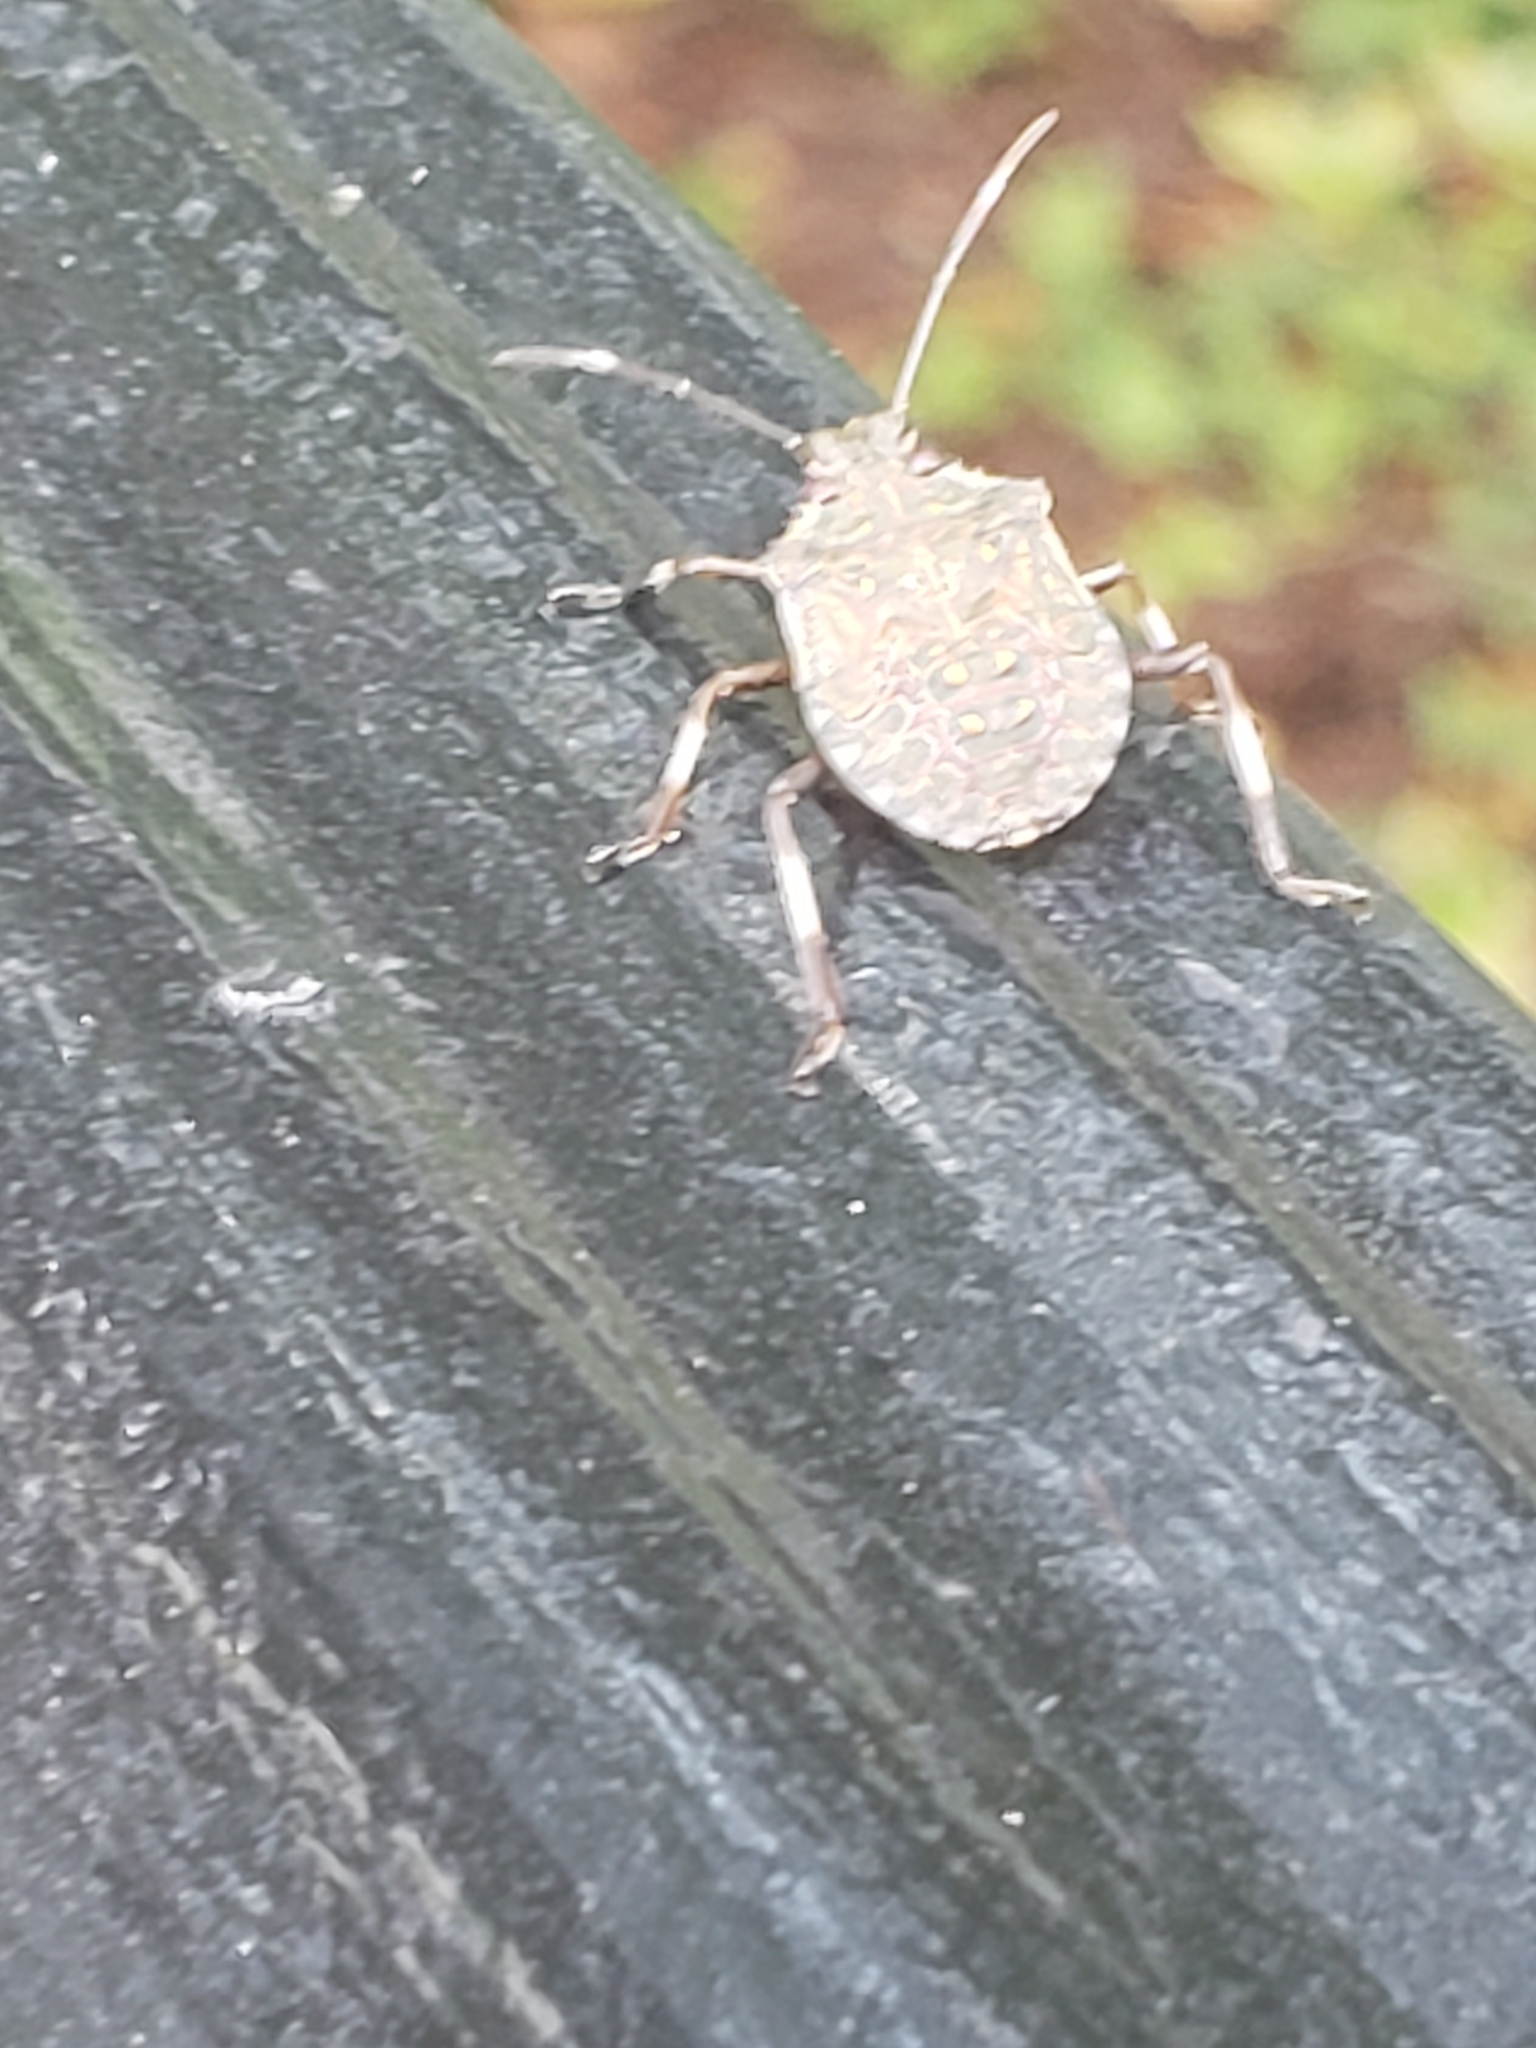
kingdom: Animalia
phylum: Arthropoda
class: Insecta
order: Hemiptera
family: Pentatomidae
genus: Halyomorpha
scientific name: Halyomorpha halys
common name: Brown marmorated stink bug
